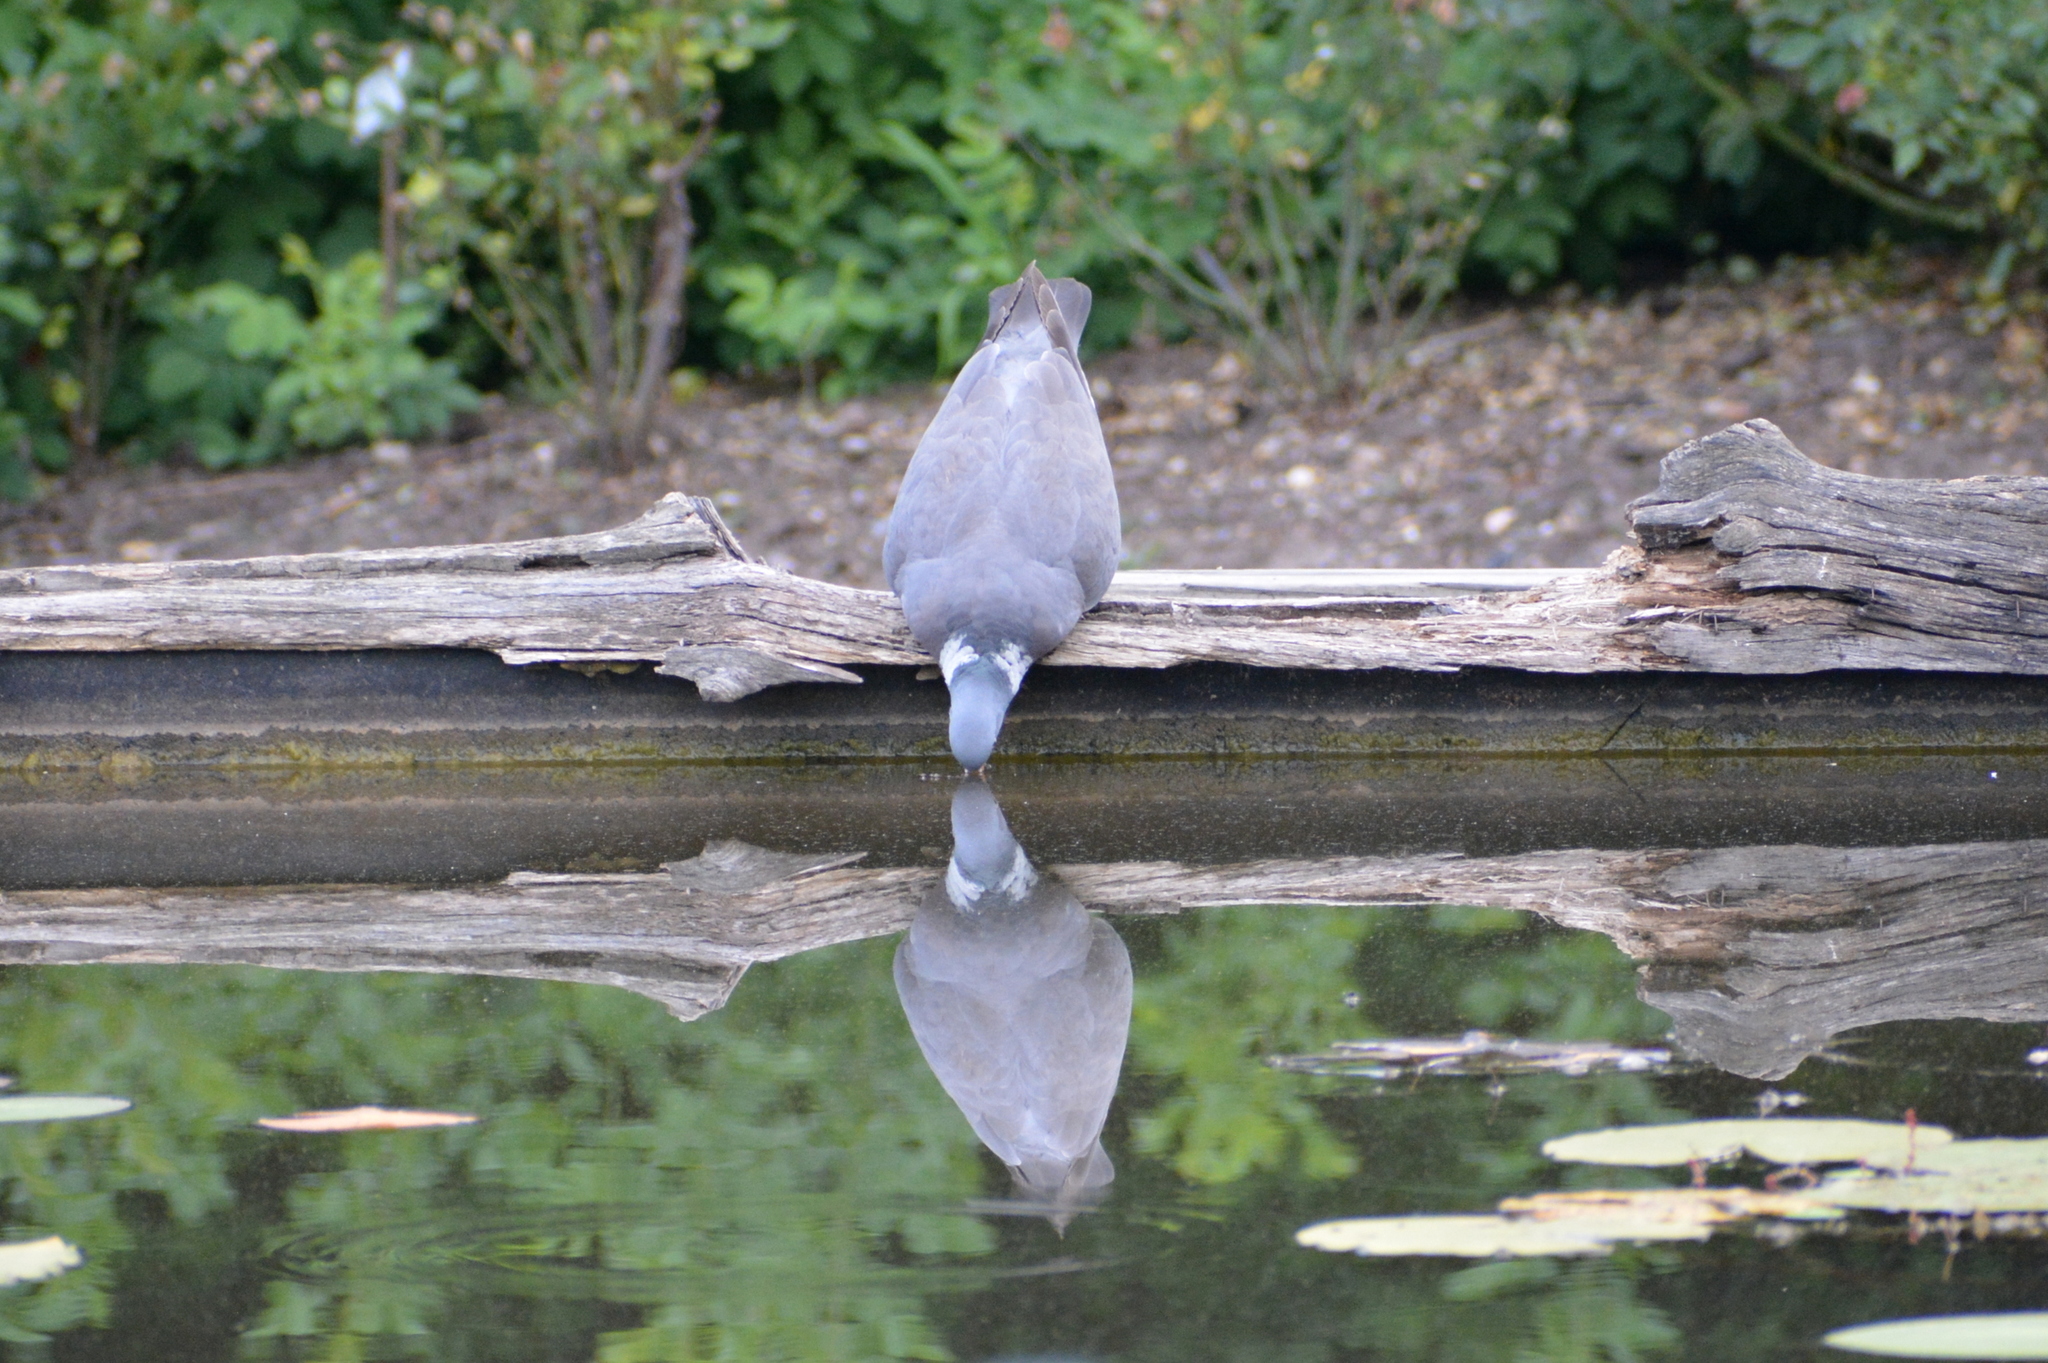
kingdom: Animalia
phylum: Chordata
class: Aves
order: Columbiformes
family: Columbidae
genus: Columba
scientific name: Columba palumbus
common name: Common wood pigeon
